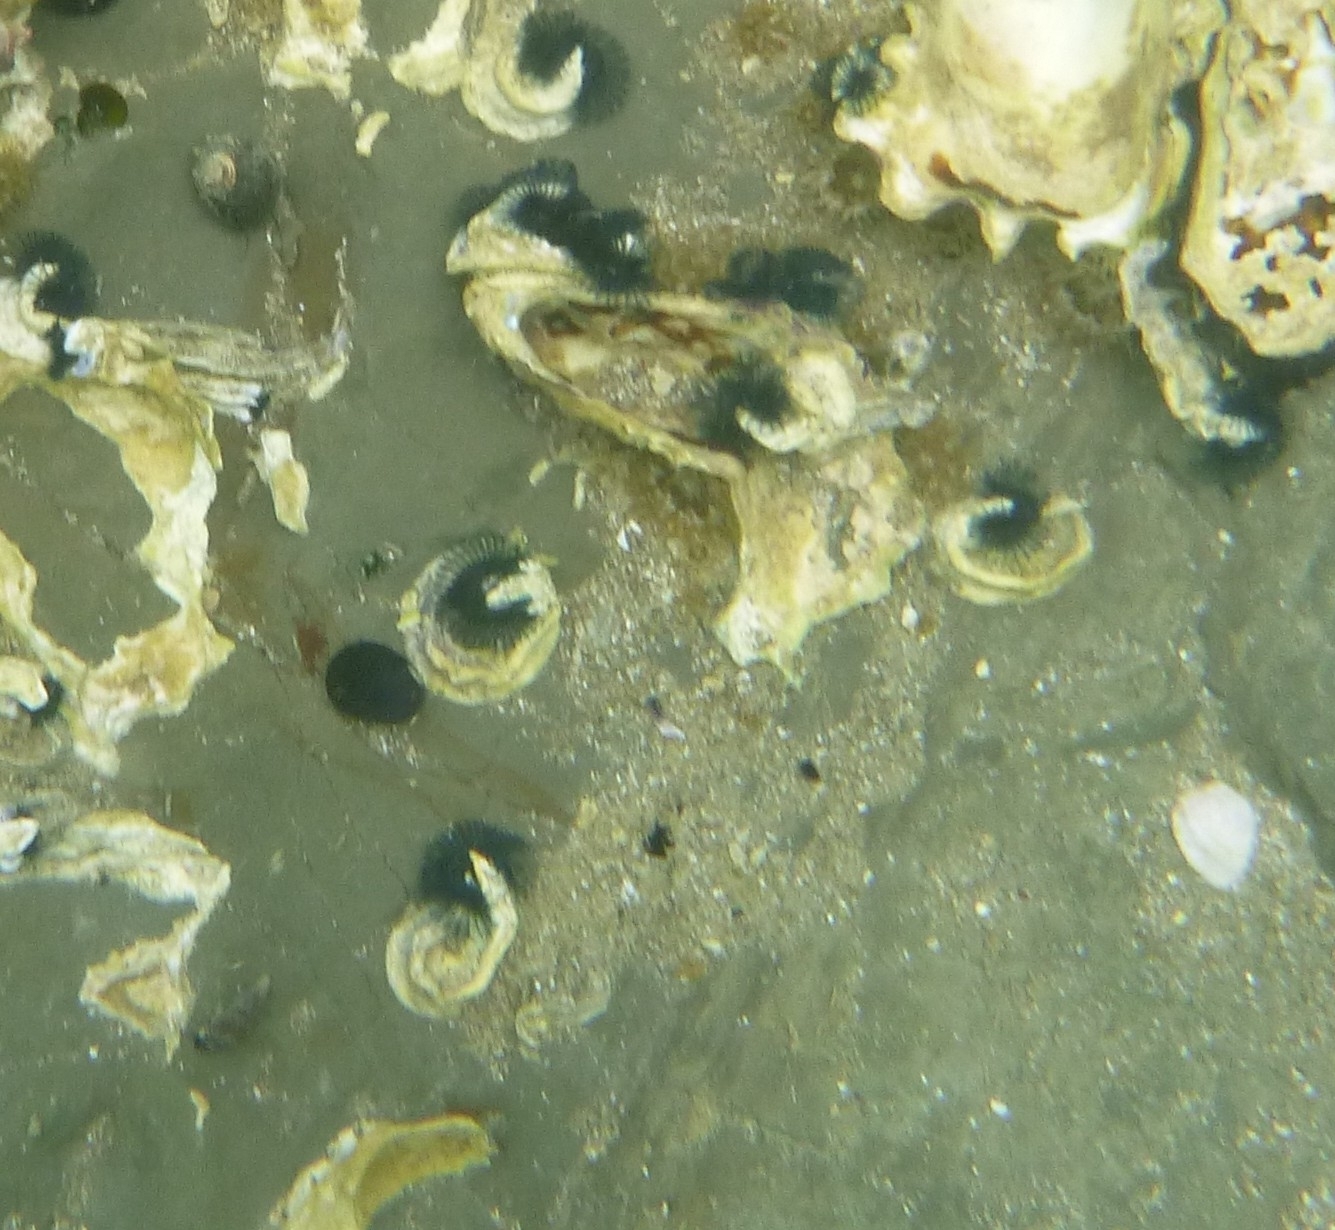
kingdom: Animalia
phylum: Annelida
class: Polychaeta
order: Sabellida
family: Serpulidae
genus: Spirobranchus
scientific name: Spirobranchus cariniferus
